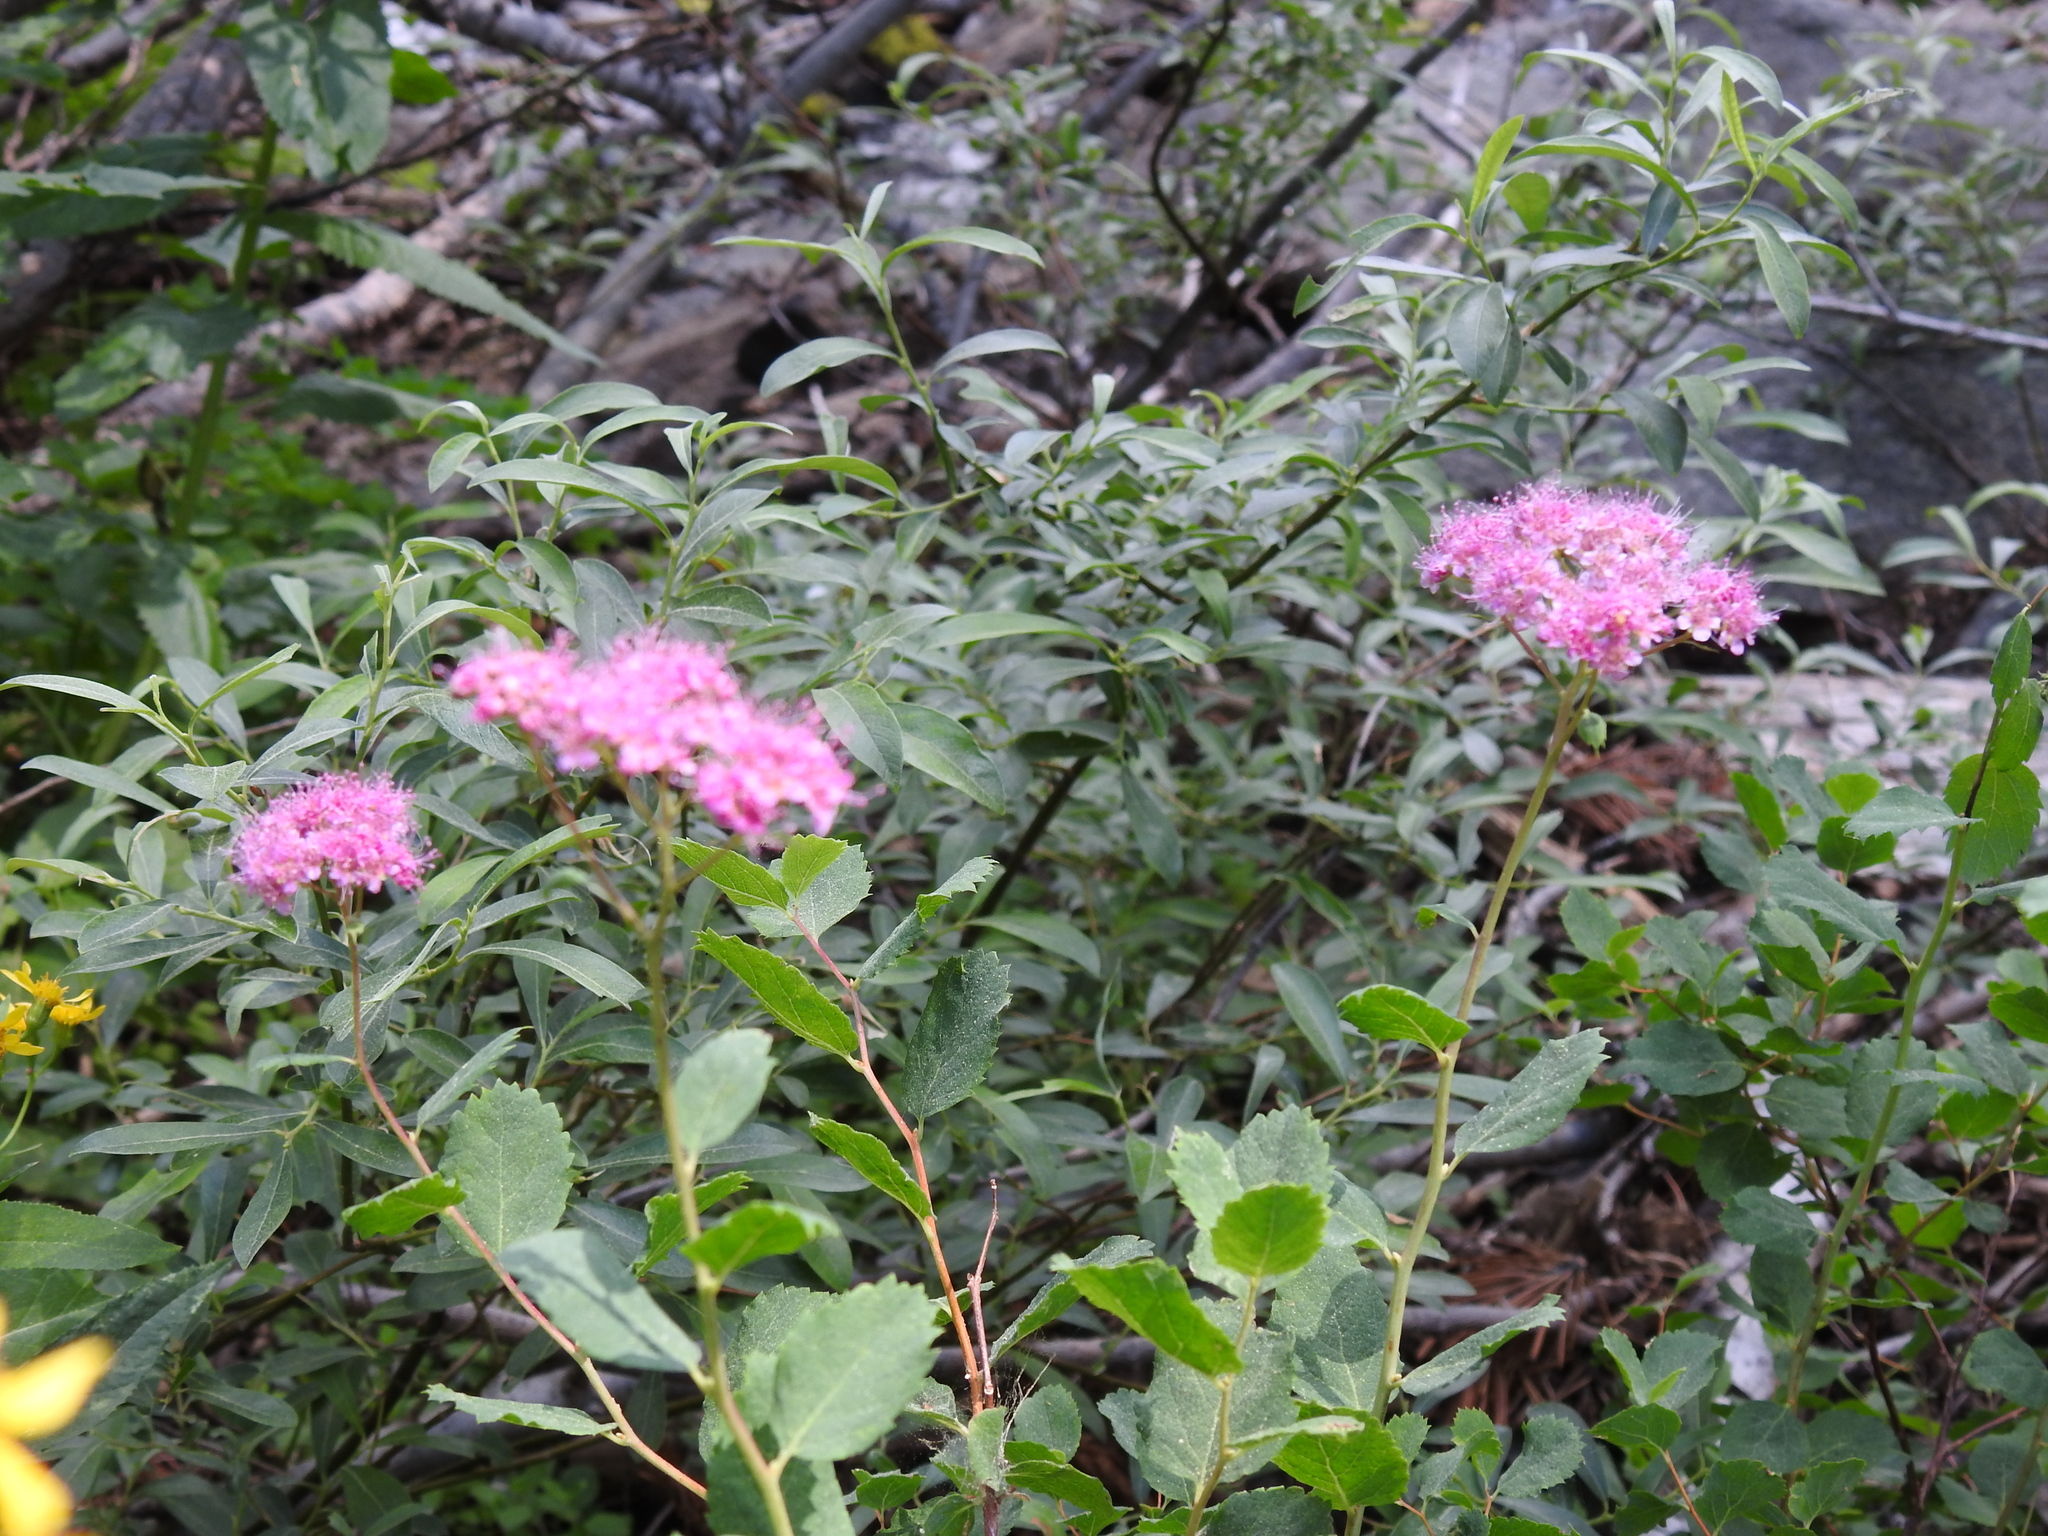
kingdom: Plantae
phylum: Tracheophyta
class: Magnoliopsida
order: Rosales
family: Rosaceae
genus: Spiraea
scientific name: Spiraea splendens
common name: Subalpine meadowsweet
